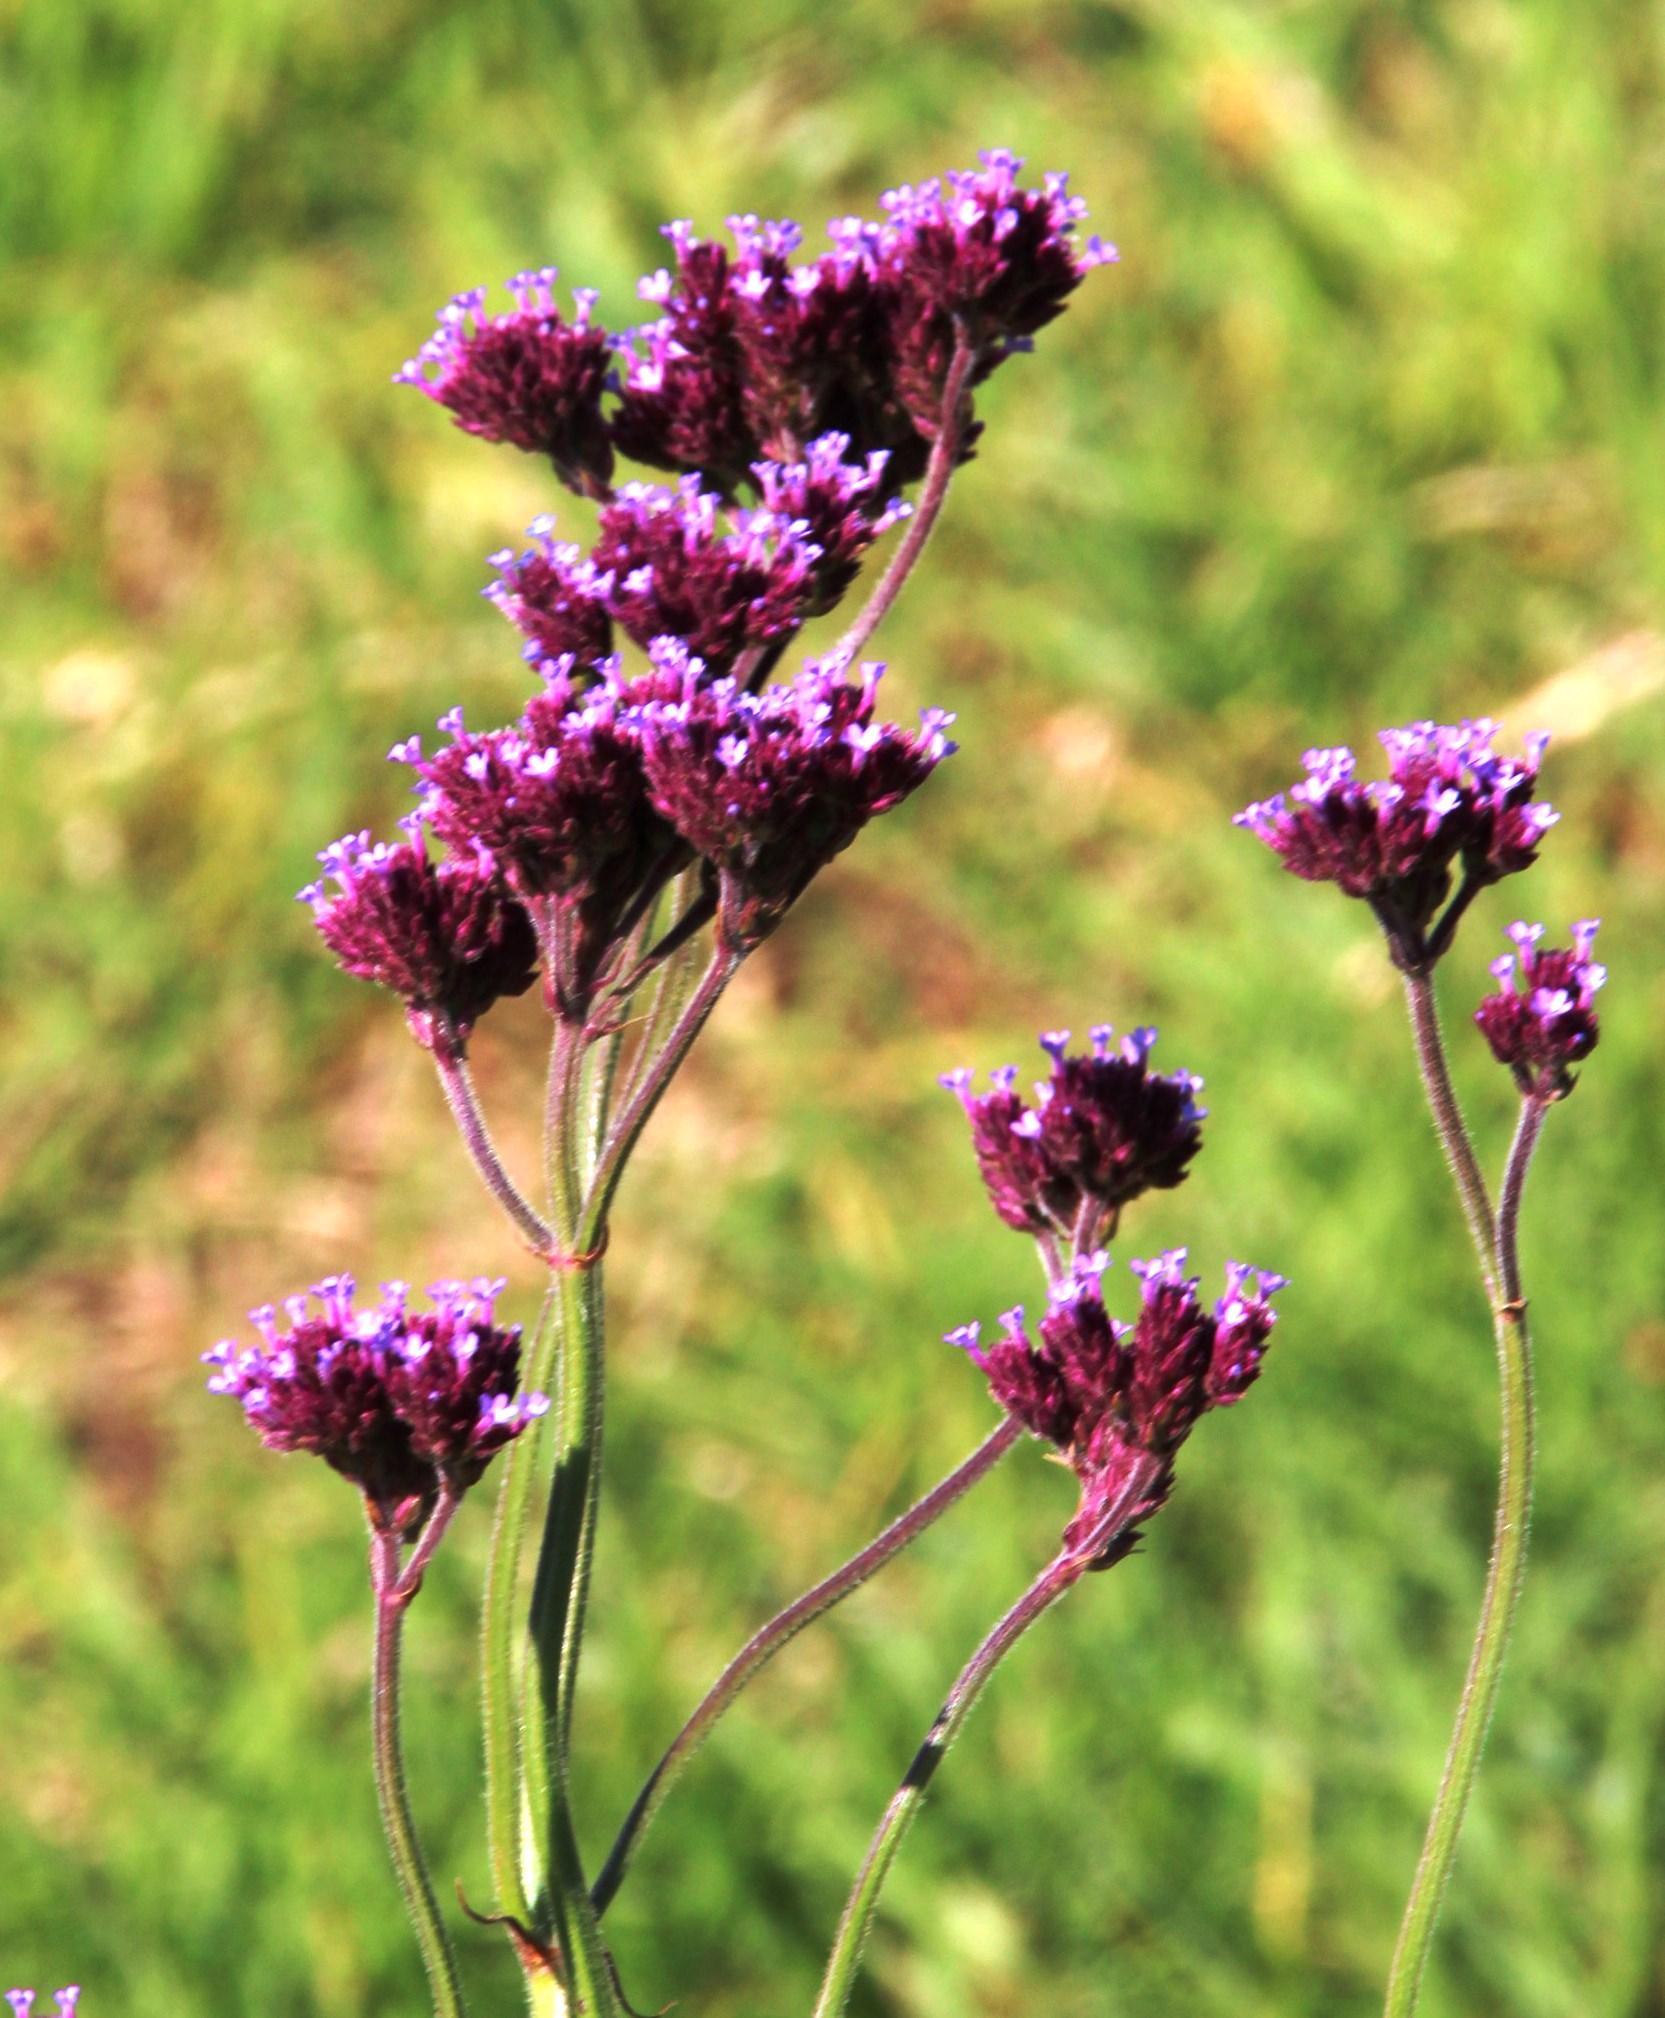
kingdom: Plantae
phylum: Tracheophyta
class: Magnoliopsida
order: Lamiales
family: Verbenaceae
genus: Verbena
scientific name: Verbena bonariensis
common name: Purpletop vervain
